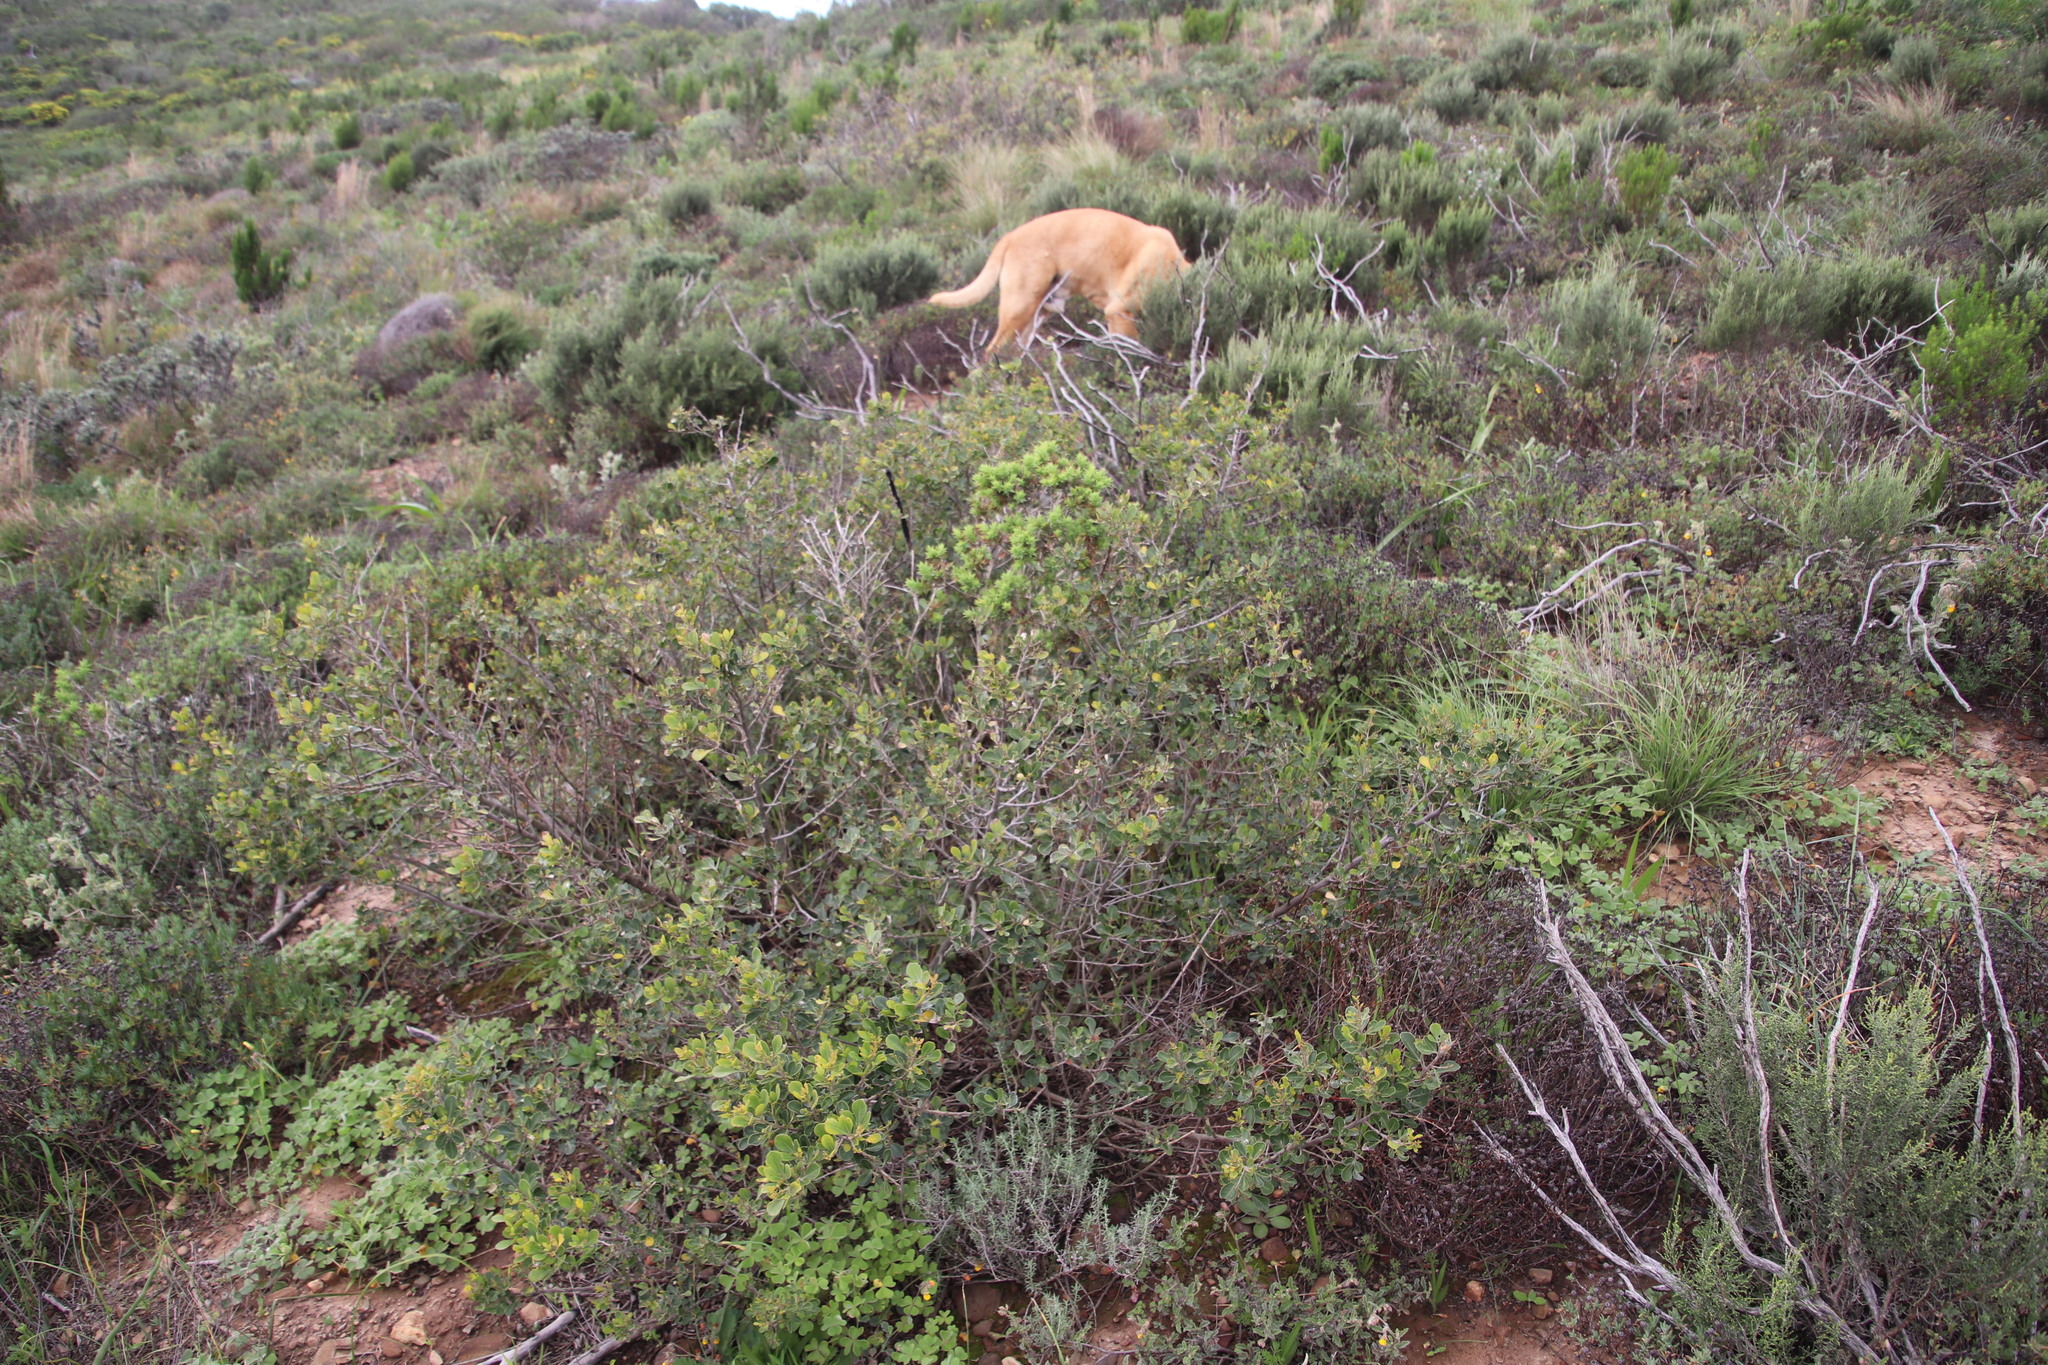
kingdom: Plantae
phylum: Tracheophyta
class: Magnoliopsida
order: Sapindales
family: Anacardiaceae
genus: Searsia
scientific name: Searsia lucida
